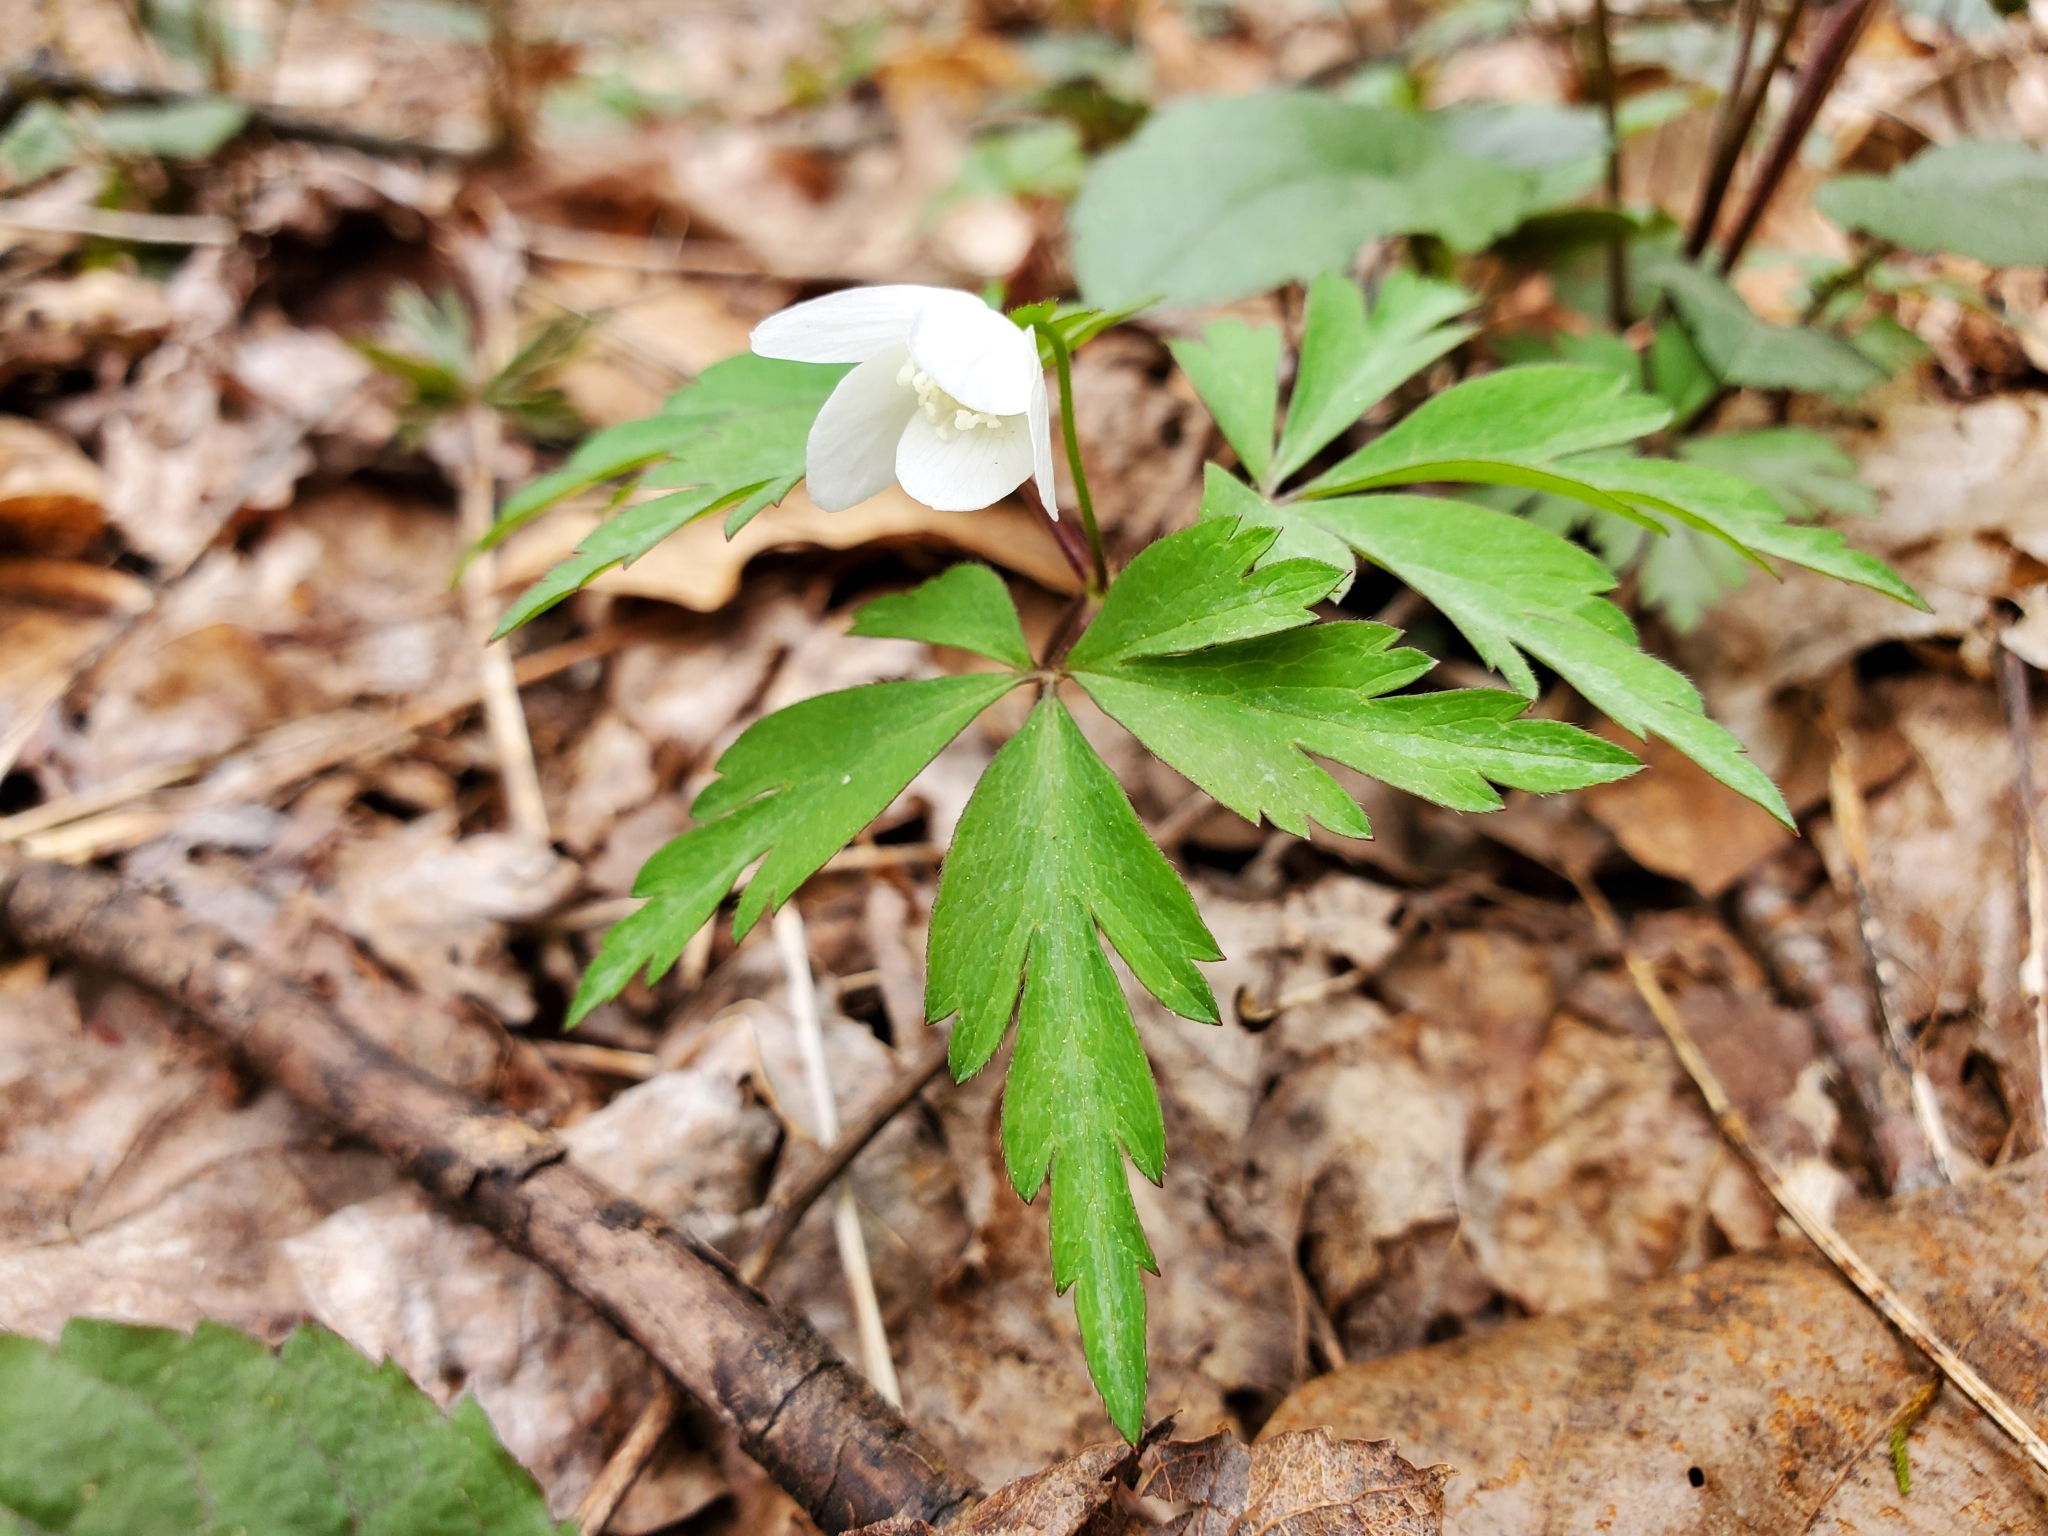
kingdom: Plantae
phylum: Tracheophyta
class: Magnoliopsida
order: Ranunculales
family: Ranunculaceae
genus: Anemone
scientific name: Anemone quinquefolia
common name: Wood anemone
